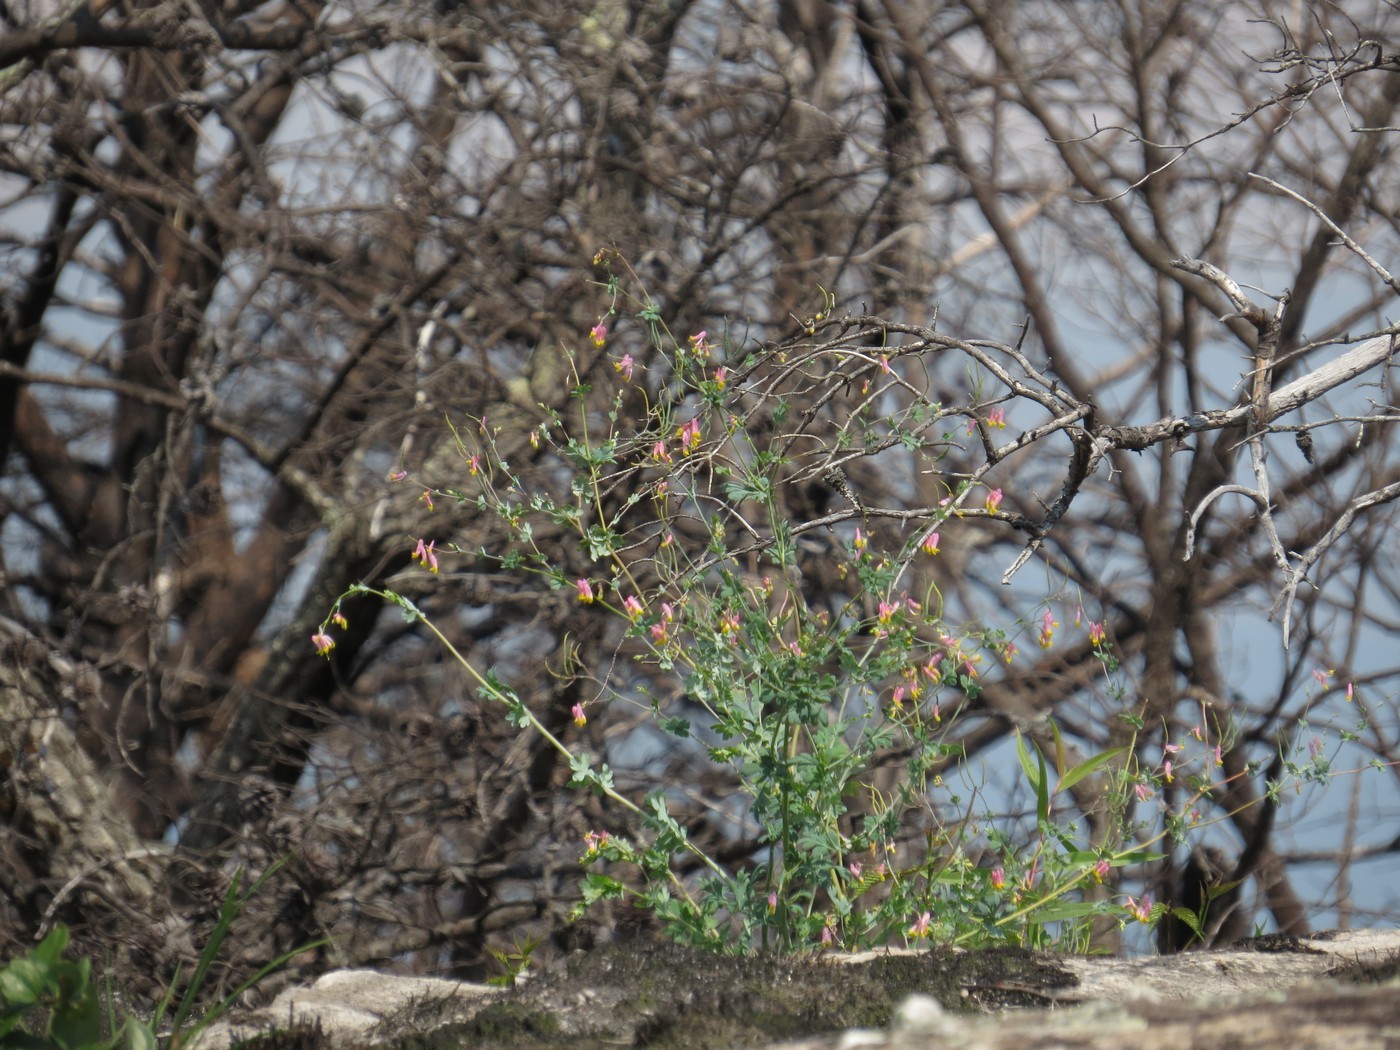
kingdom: Plantae
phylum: Tracheophyta
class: Magnoliopsida
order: Ranunculales
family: Papaveraceae
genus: Capnoides
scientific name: Capnoides sempervirens
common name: Rock harlequin
